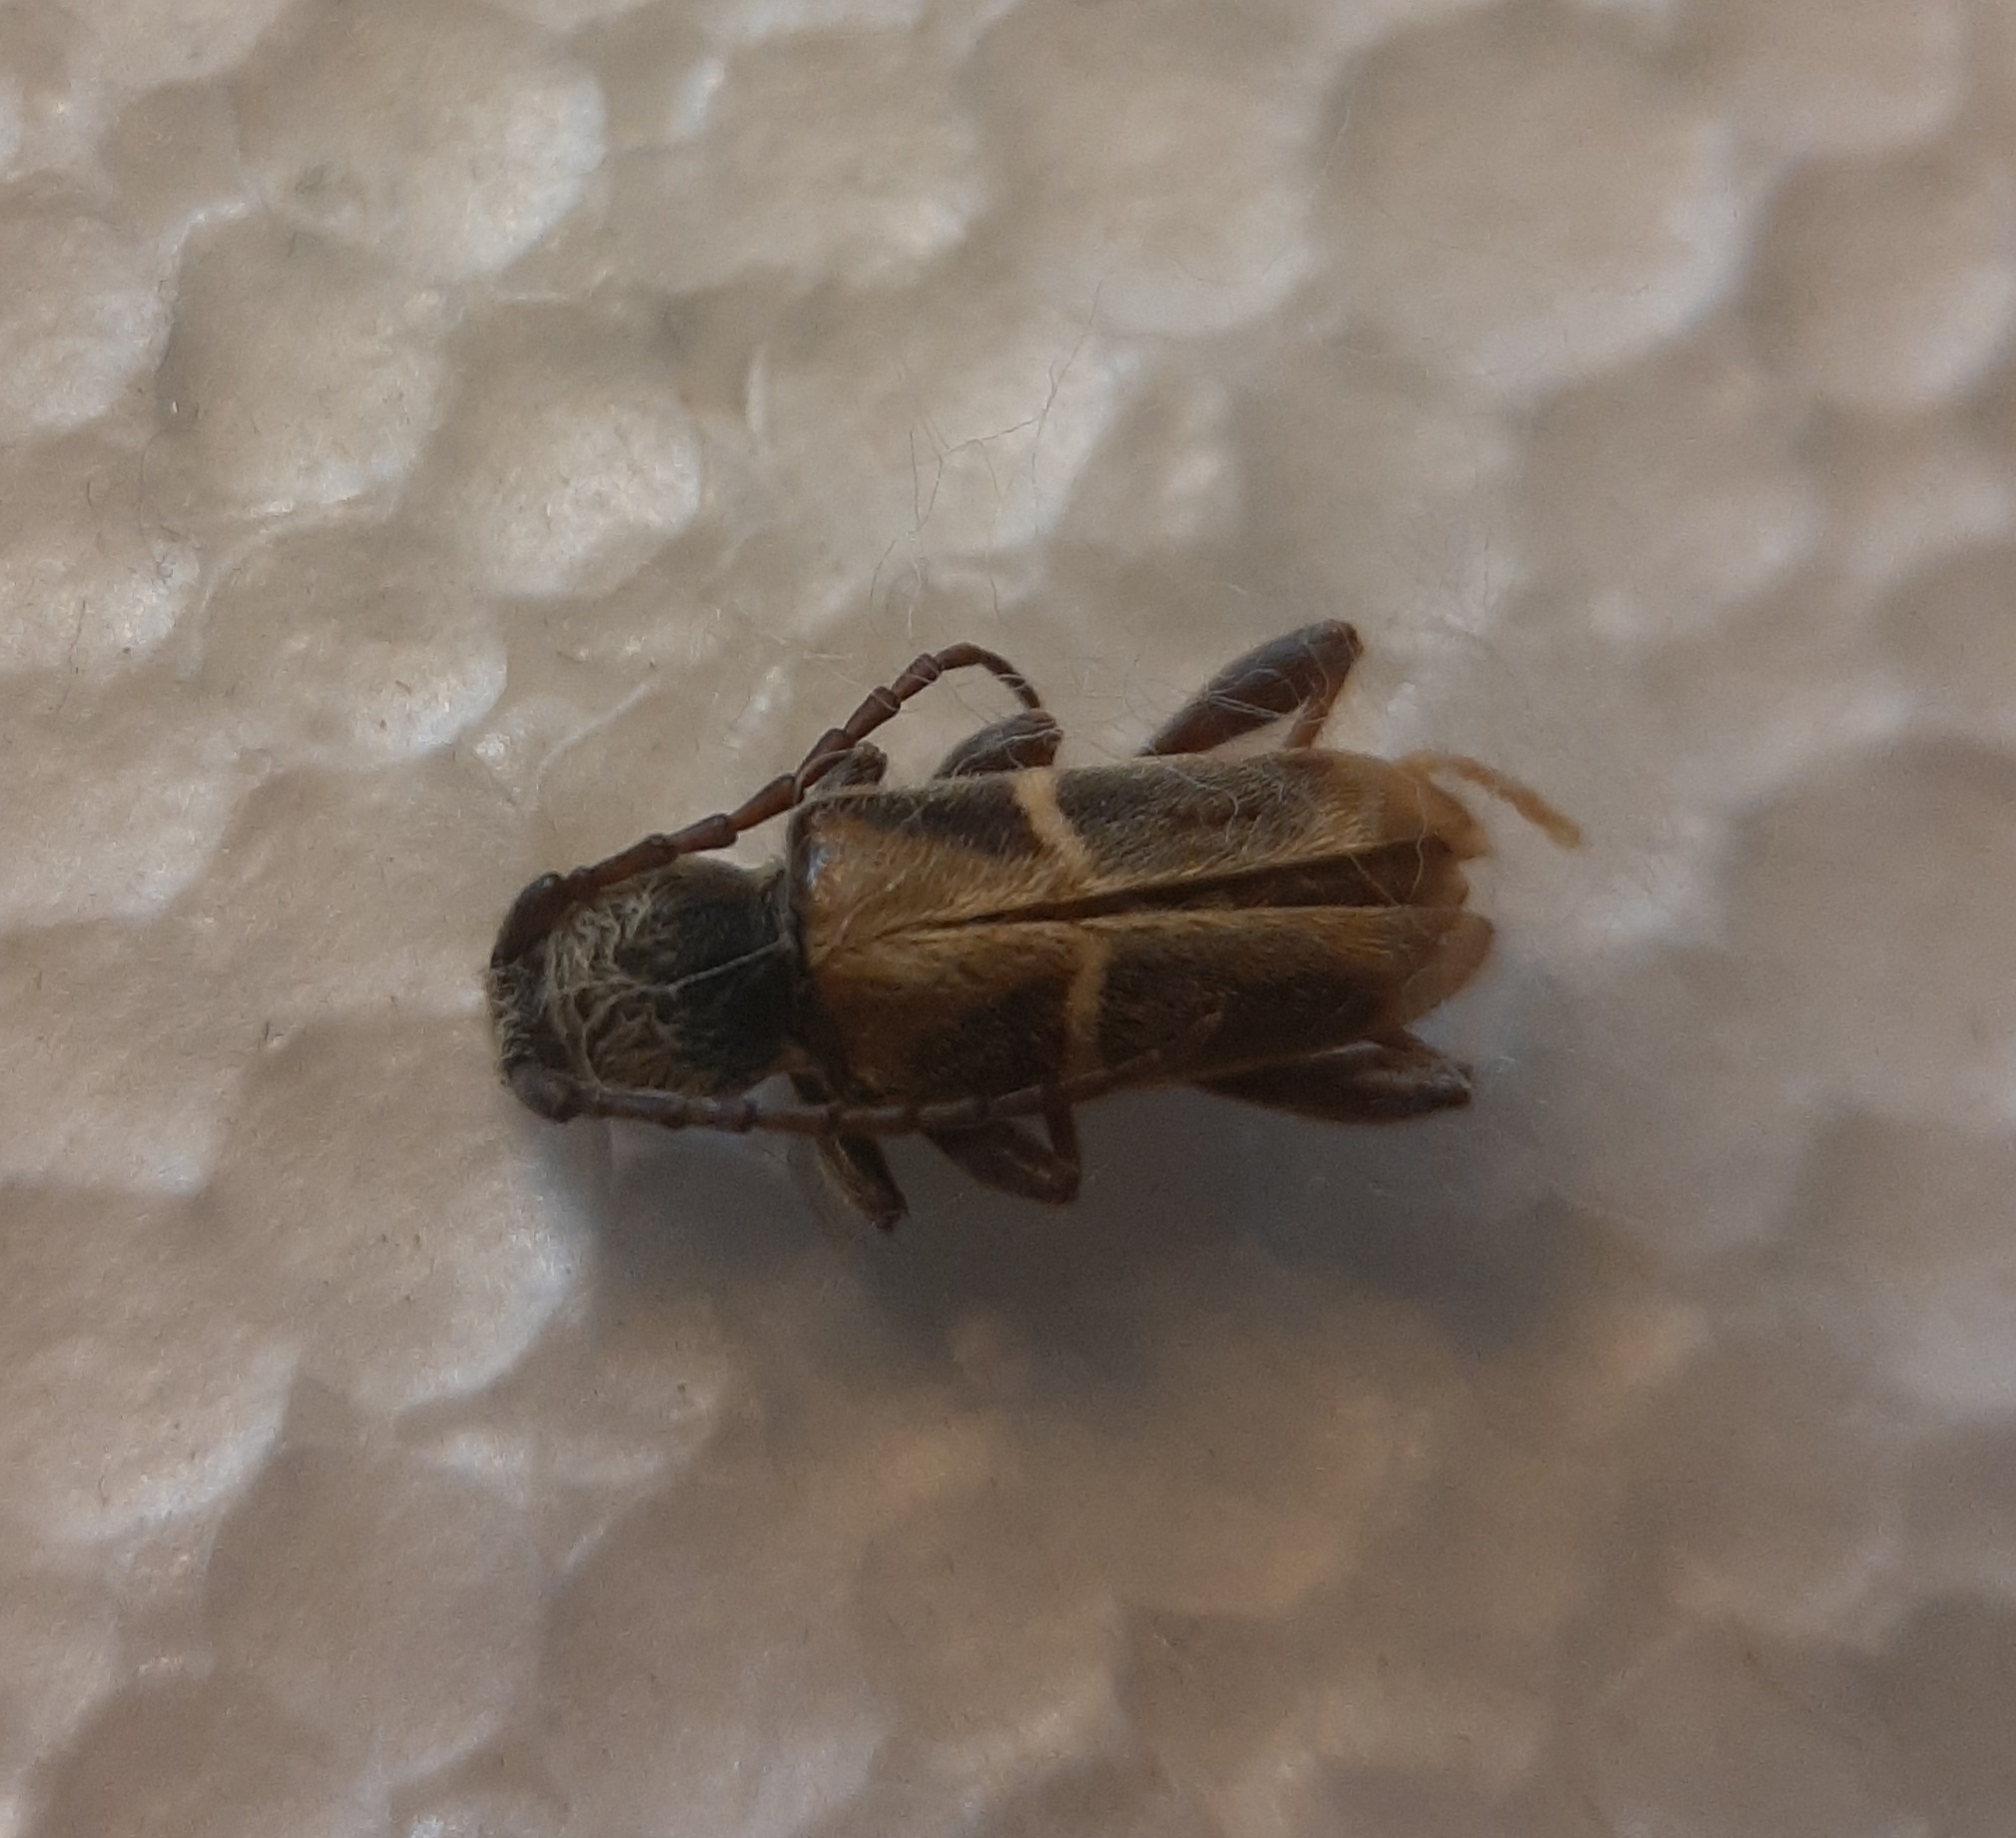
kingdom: Animalia
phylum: Arthropoda
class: Insecta
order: Coleoptera
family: Cerambycidae
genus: Triodoclytus
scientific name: Triodoclytus lanifer
